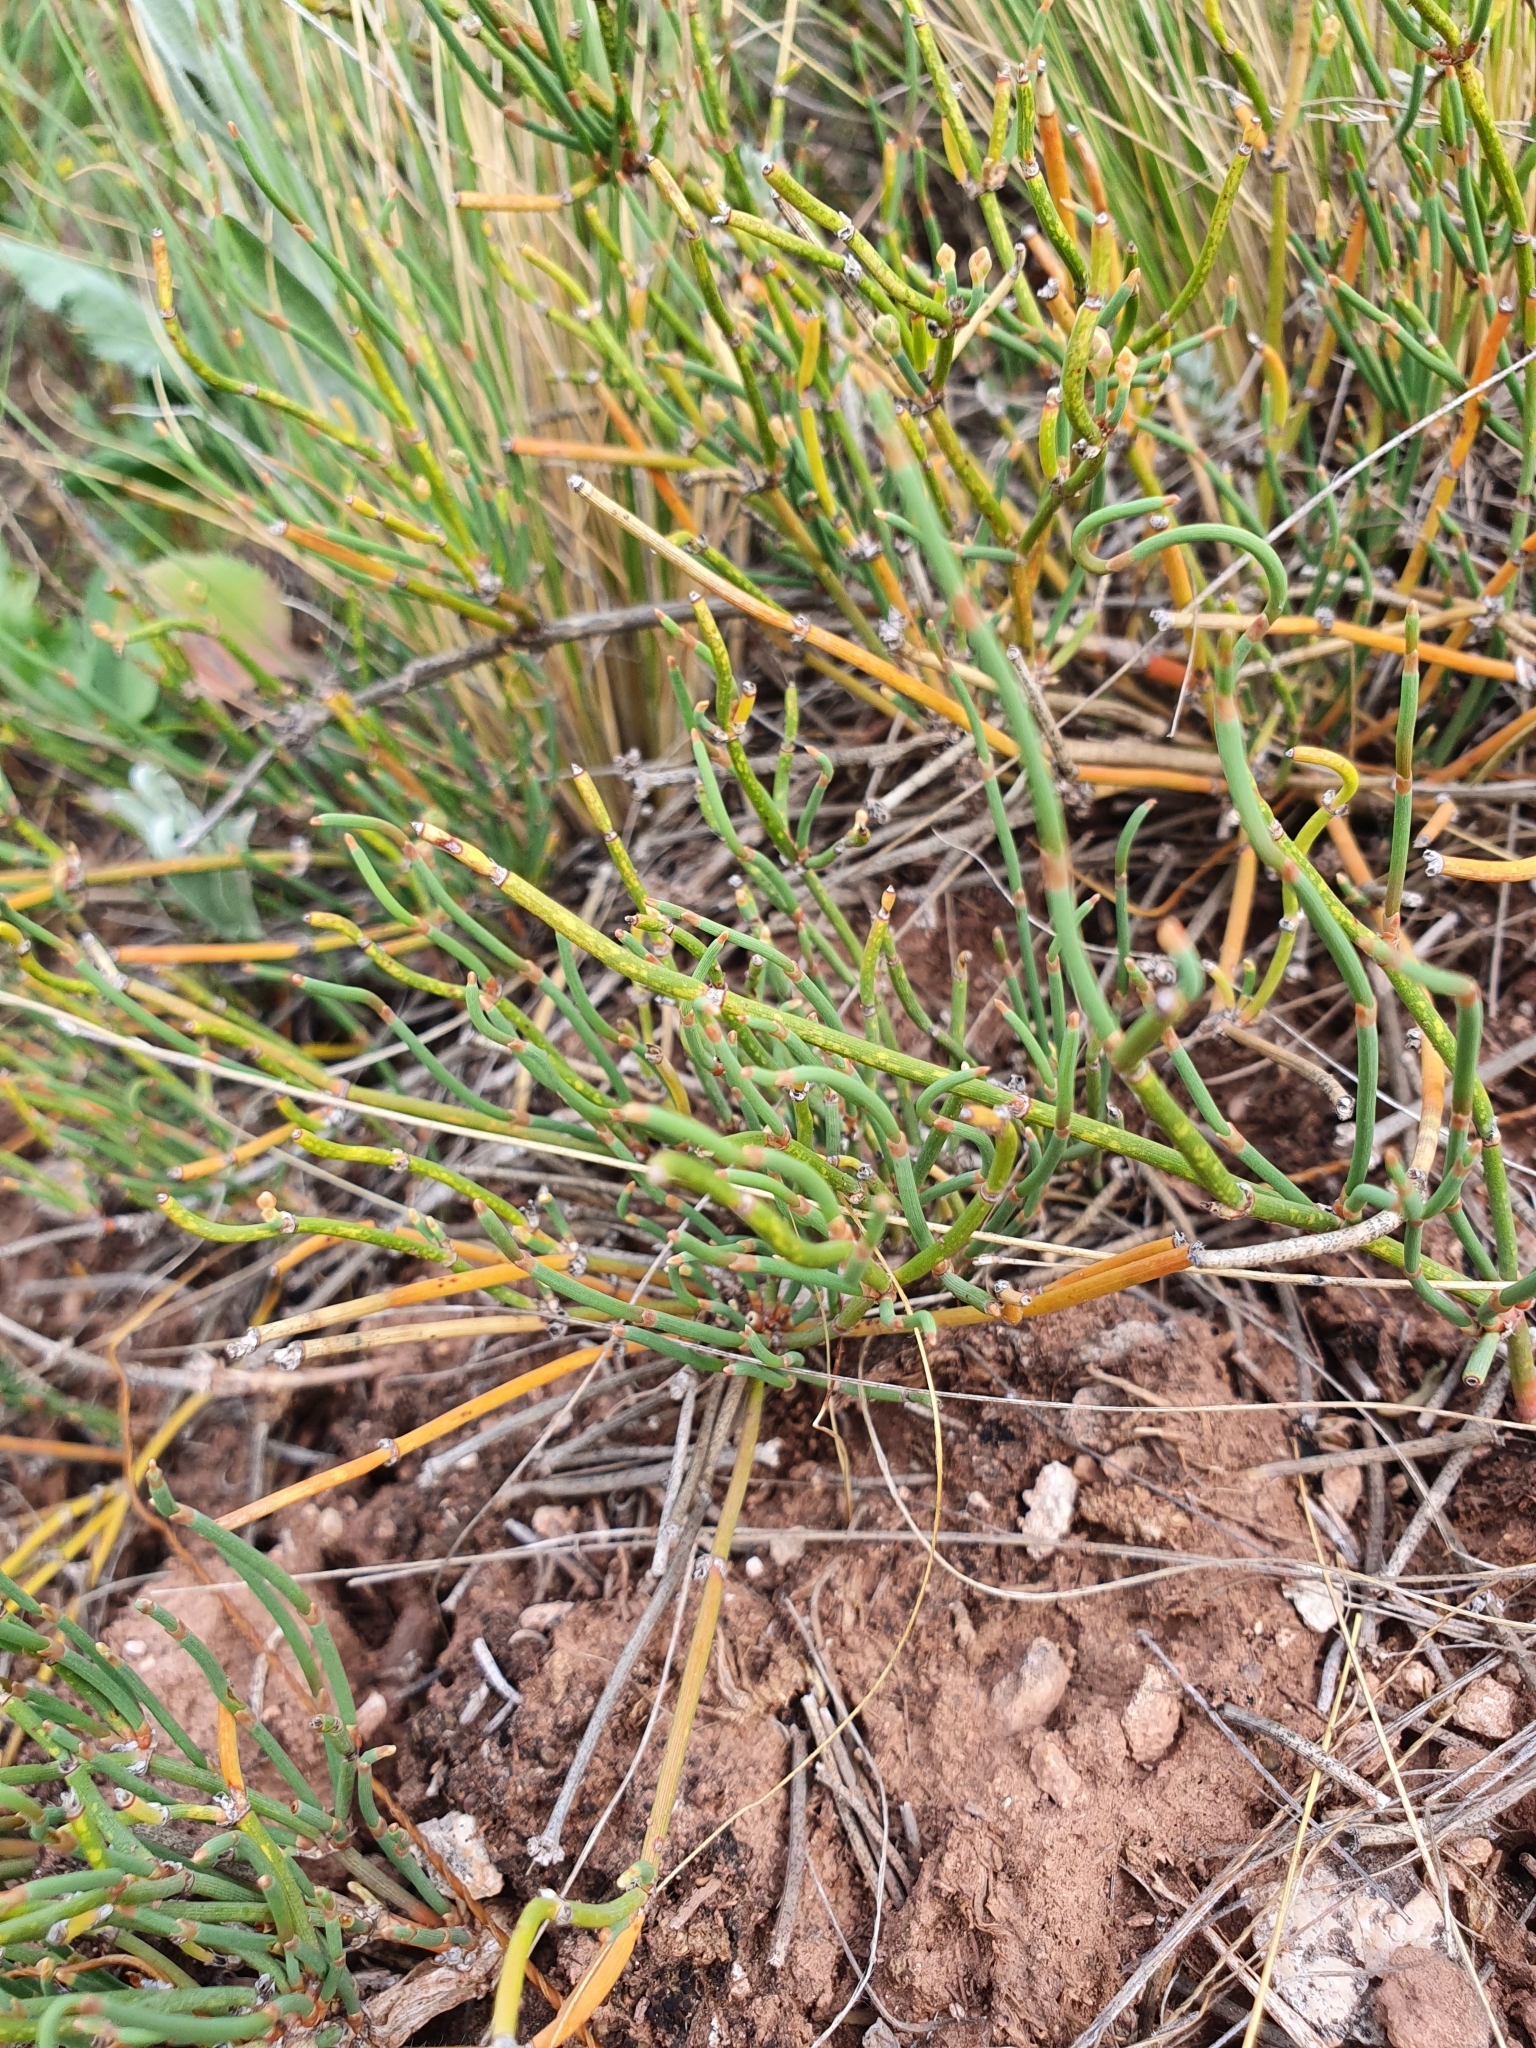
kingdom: Plantae
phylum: Tracheophyta
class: Gnetopsida
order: Ephedrales
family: Ephedraceae
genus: Ephedra
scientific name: Ephedra distachya
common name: Sea grape
